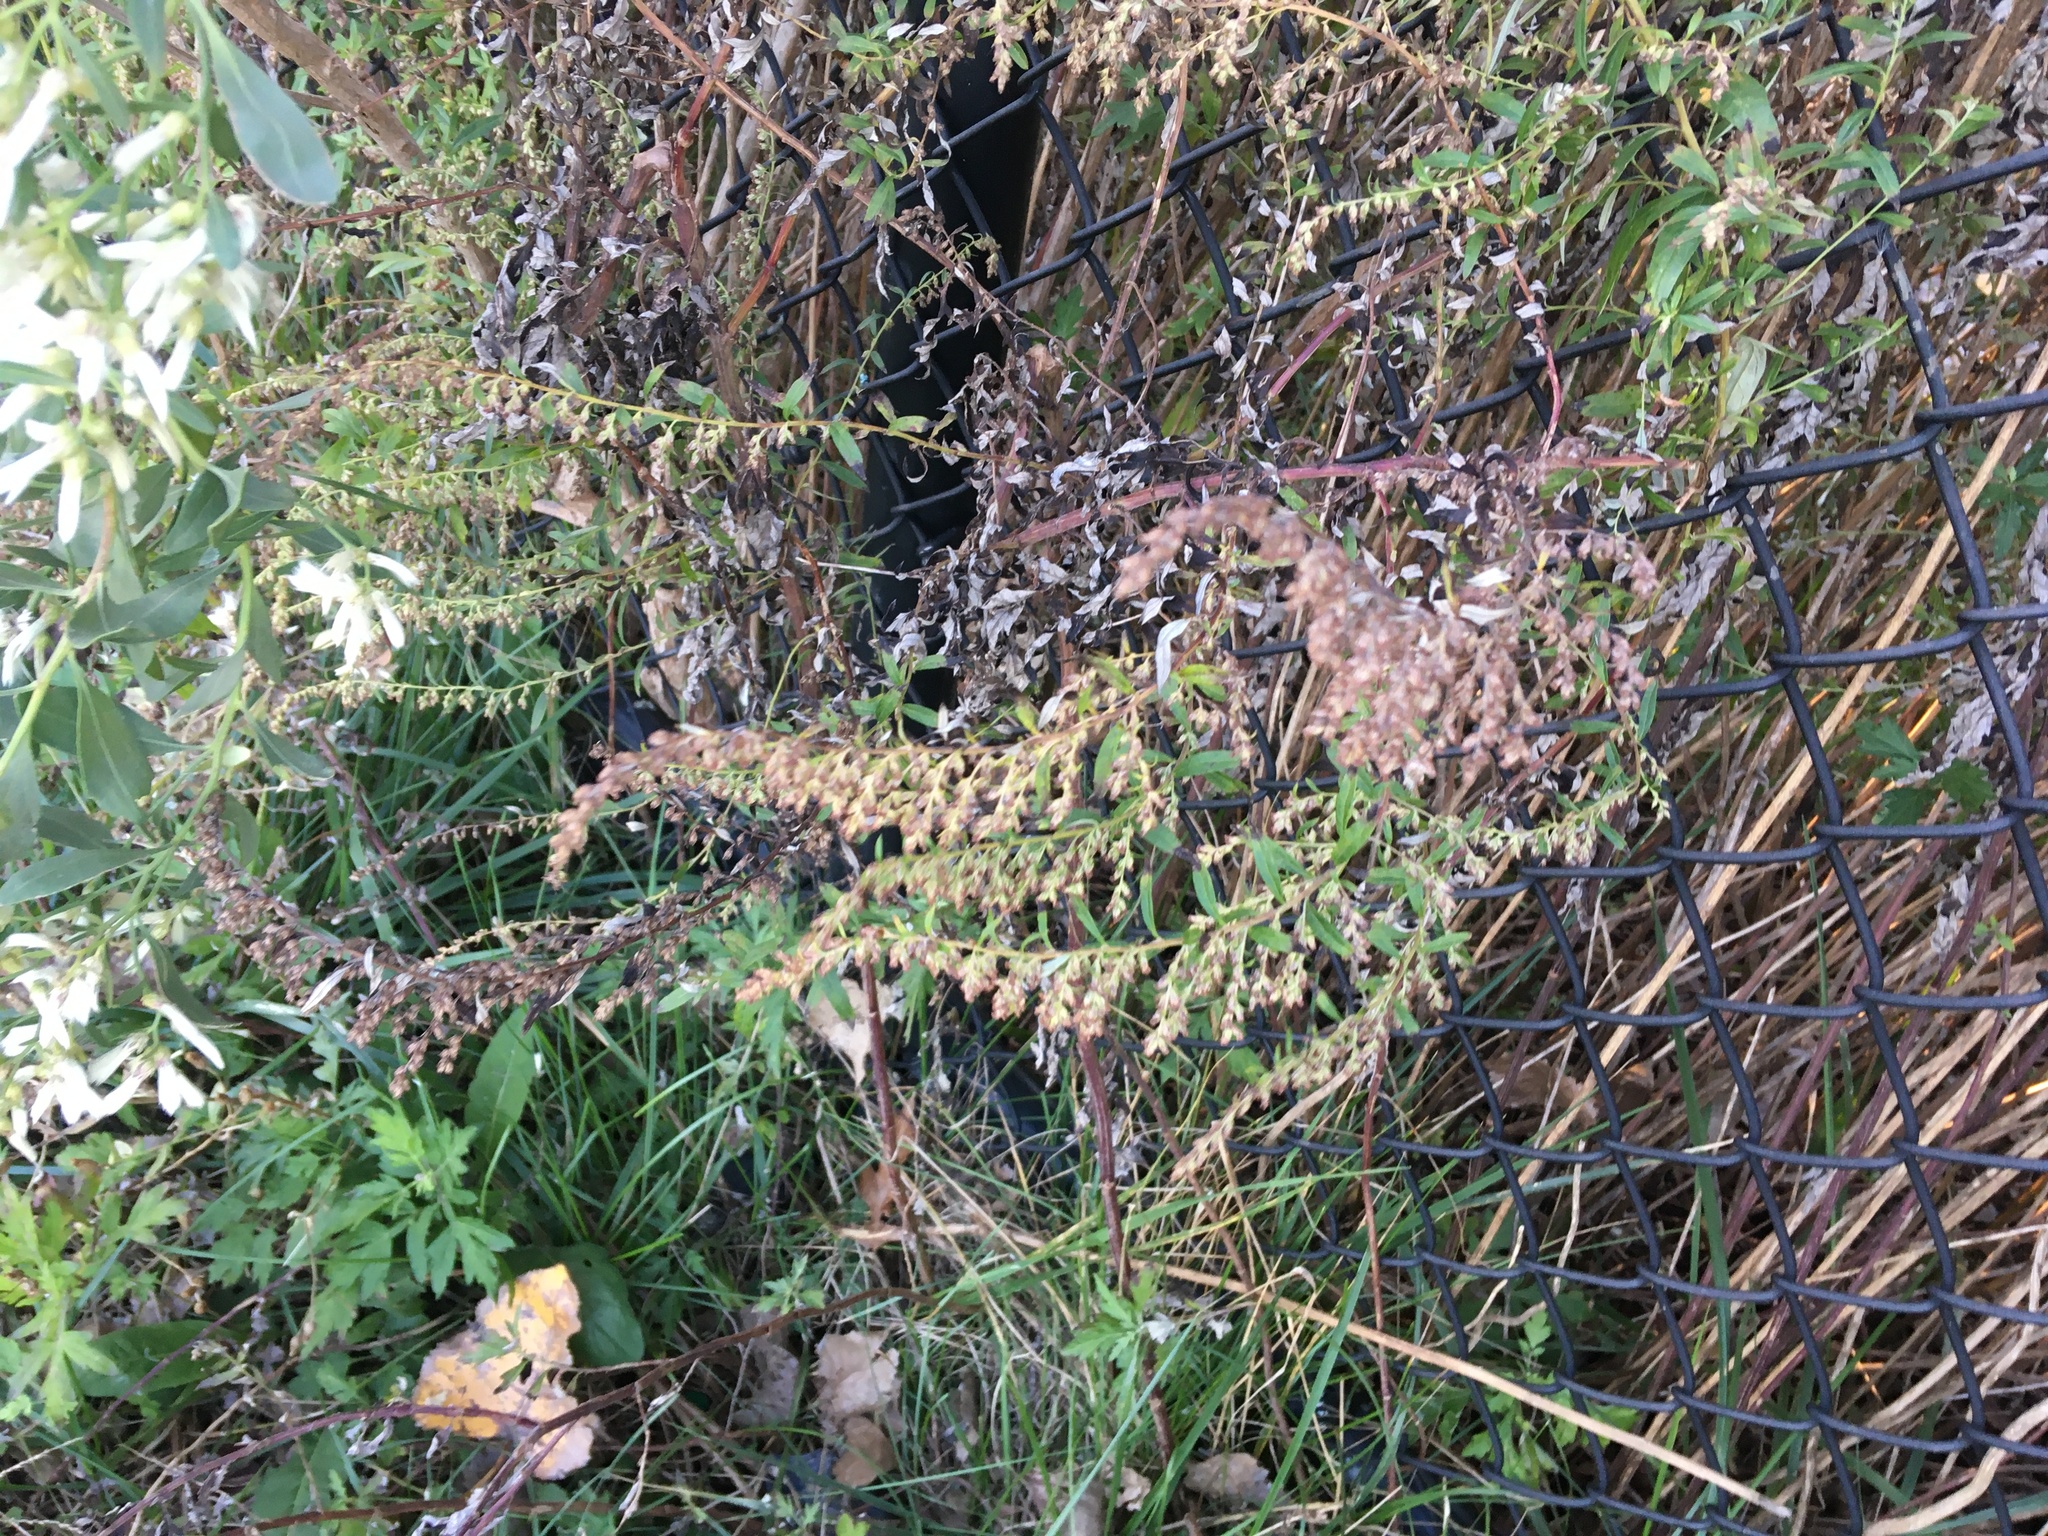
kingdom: Plantae
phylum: Tracheophyta
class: Magnoliopsida
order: Asterales
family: Asteraceae
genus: Artemisia
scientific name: Artemisia vulgaris
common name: Mugwort
